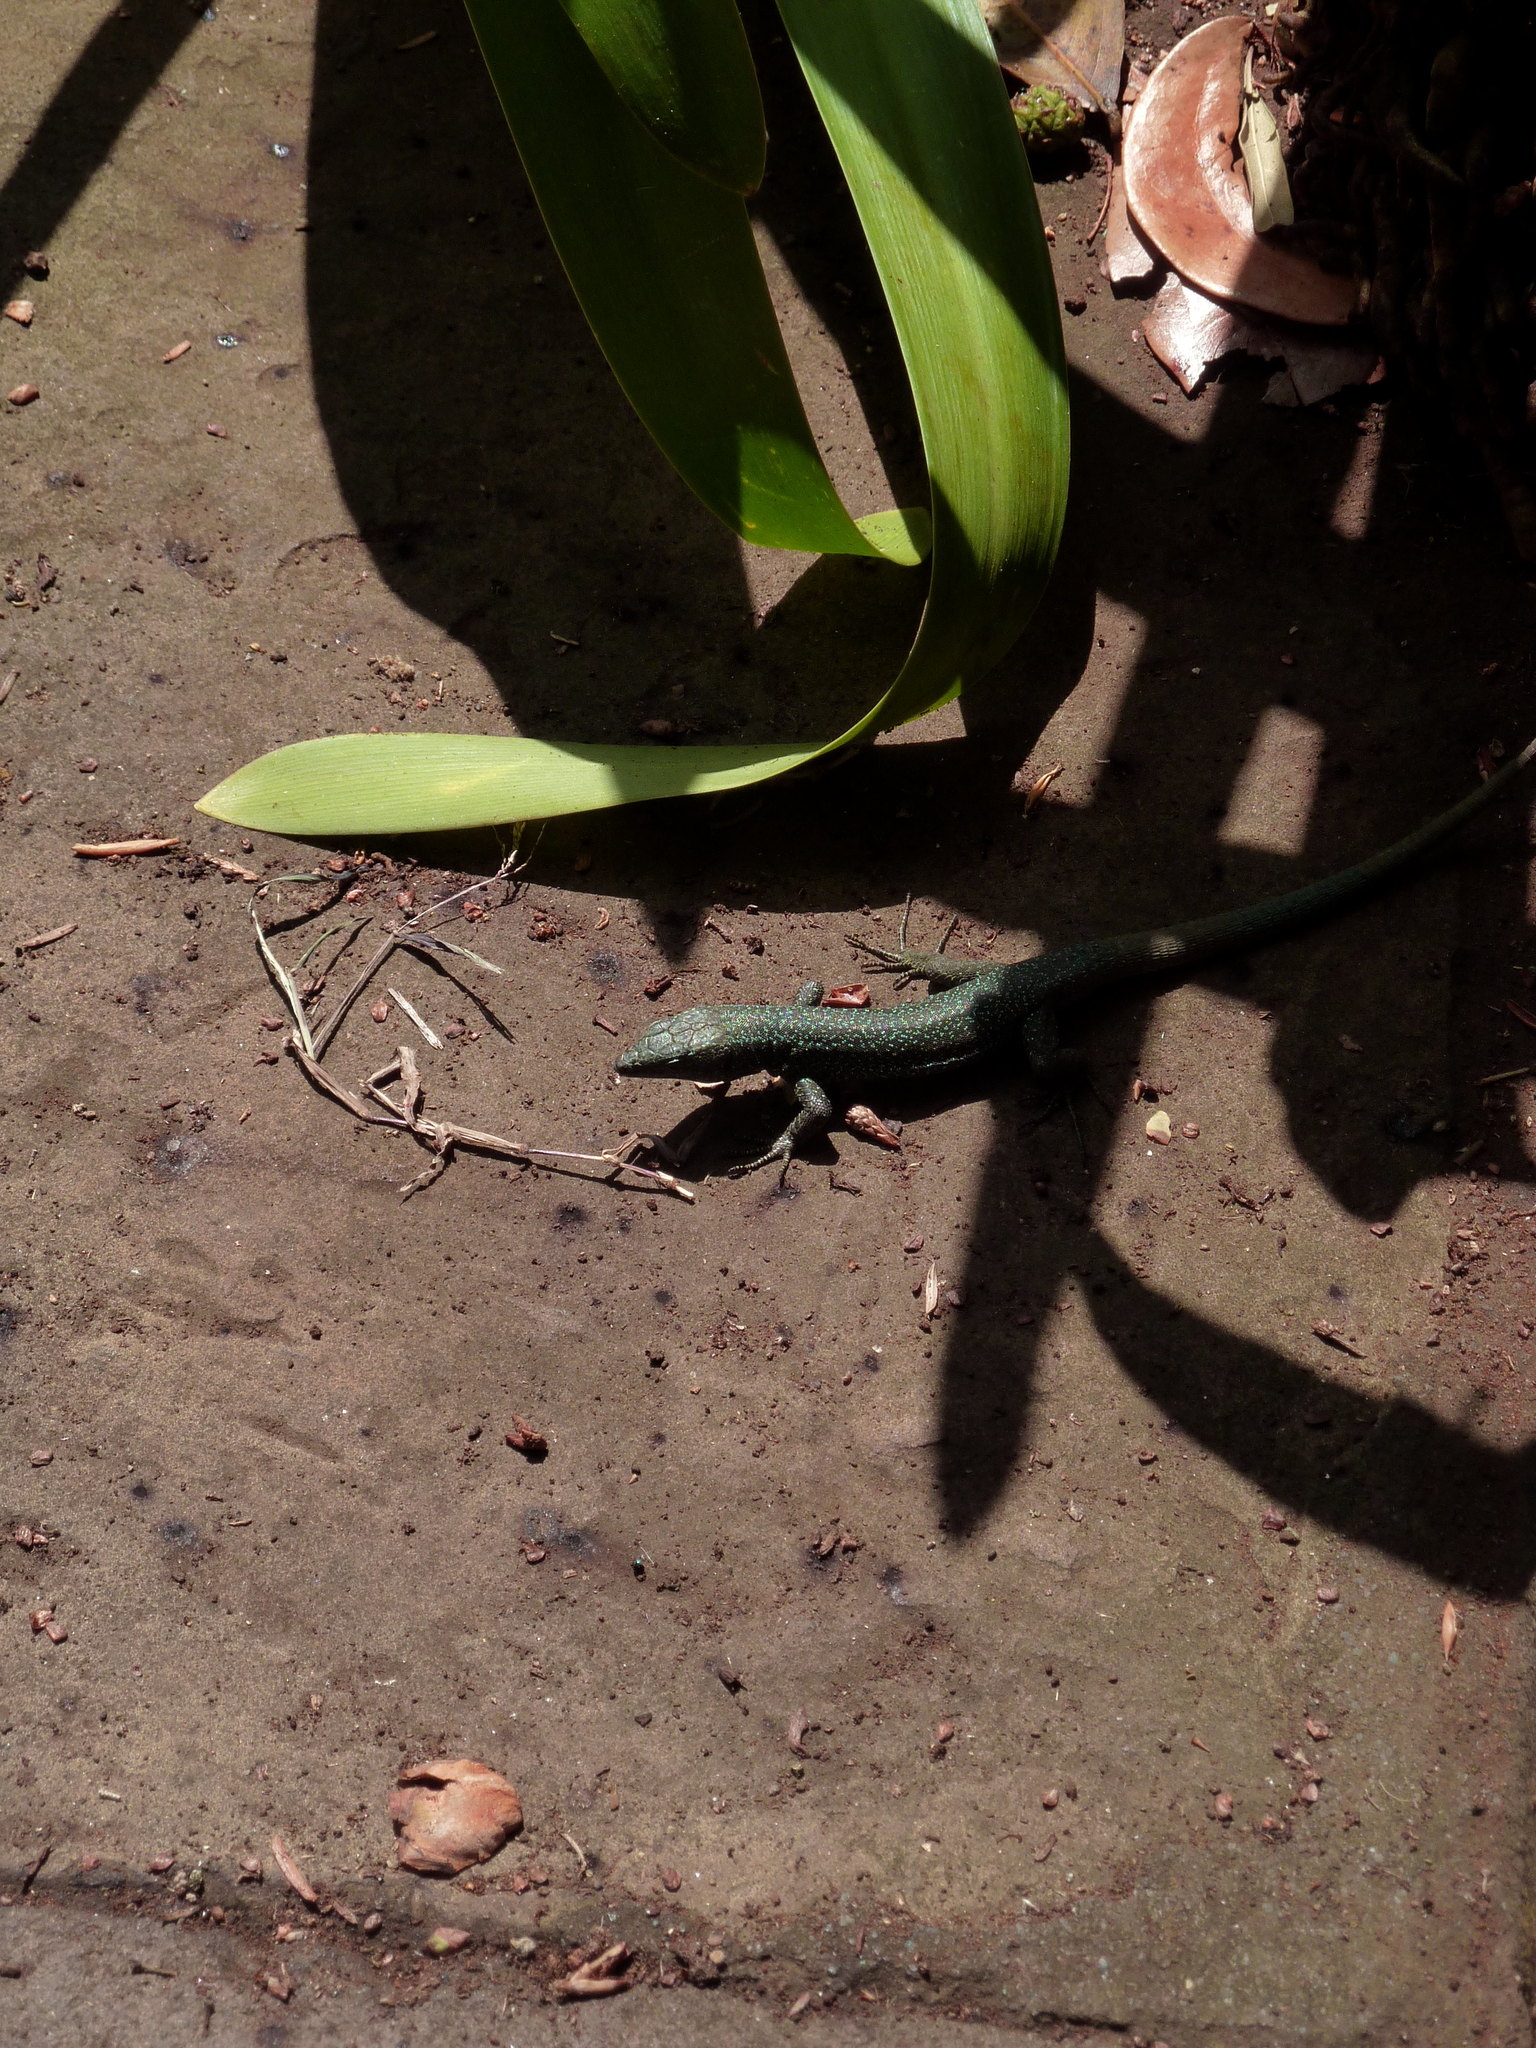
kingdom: Animalia
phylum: Chordata
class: Squamata
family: Lacertidae
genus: Teira
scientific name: Teira dugesii
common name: Madeira lizard
